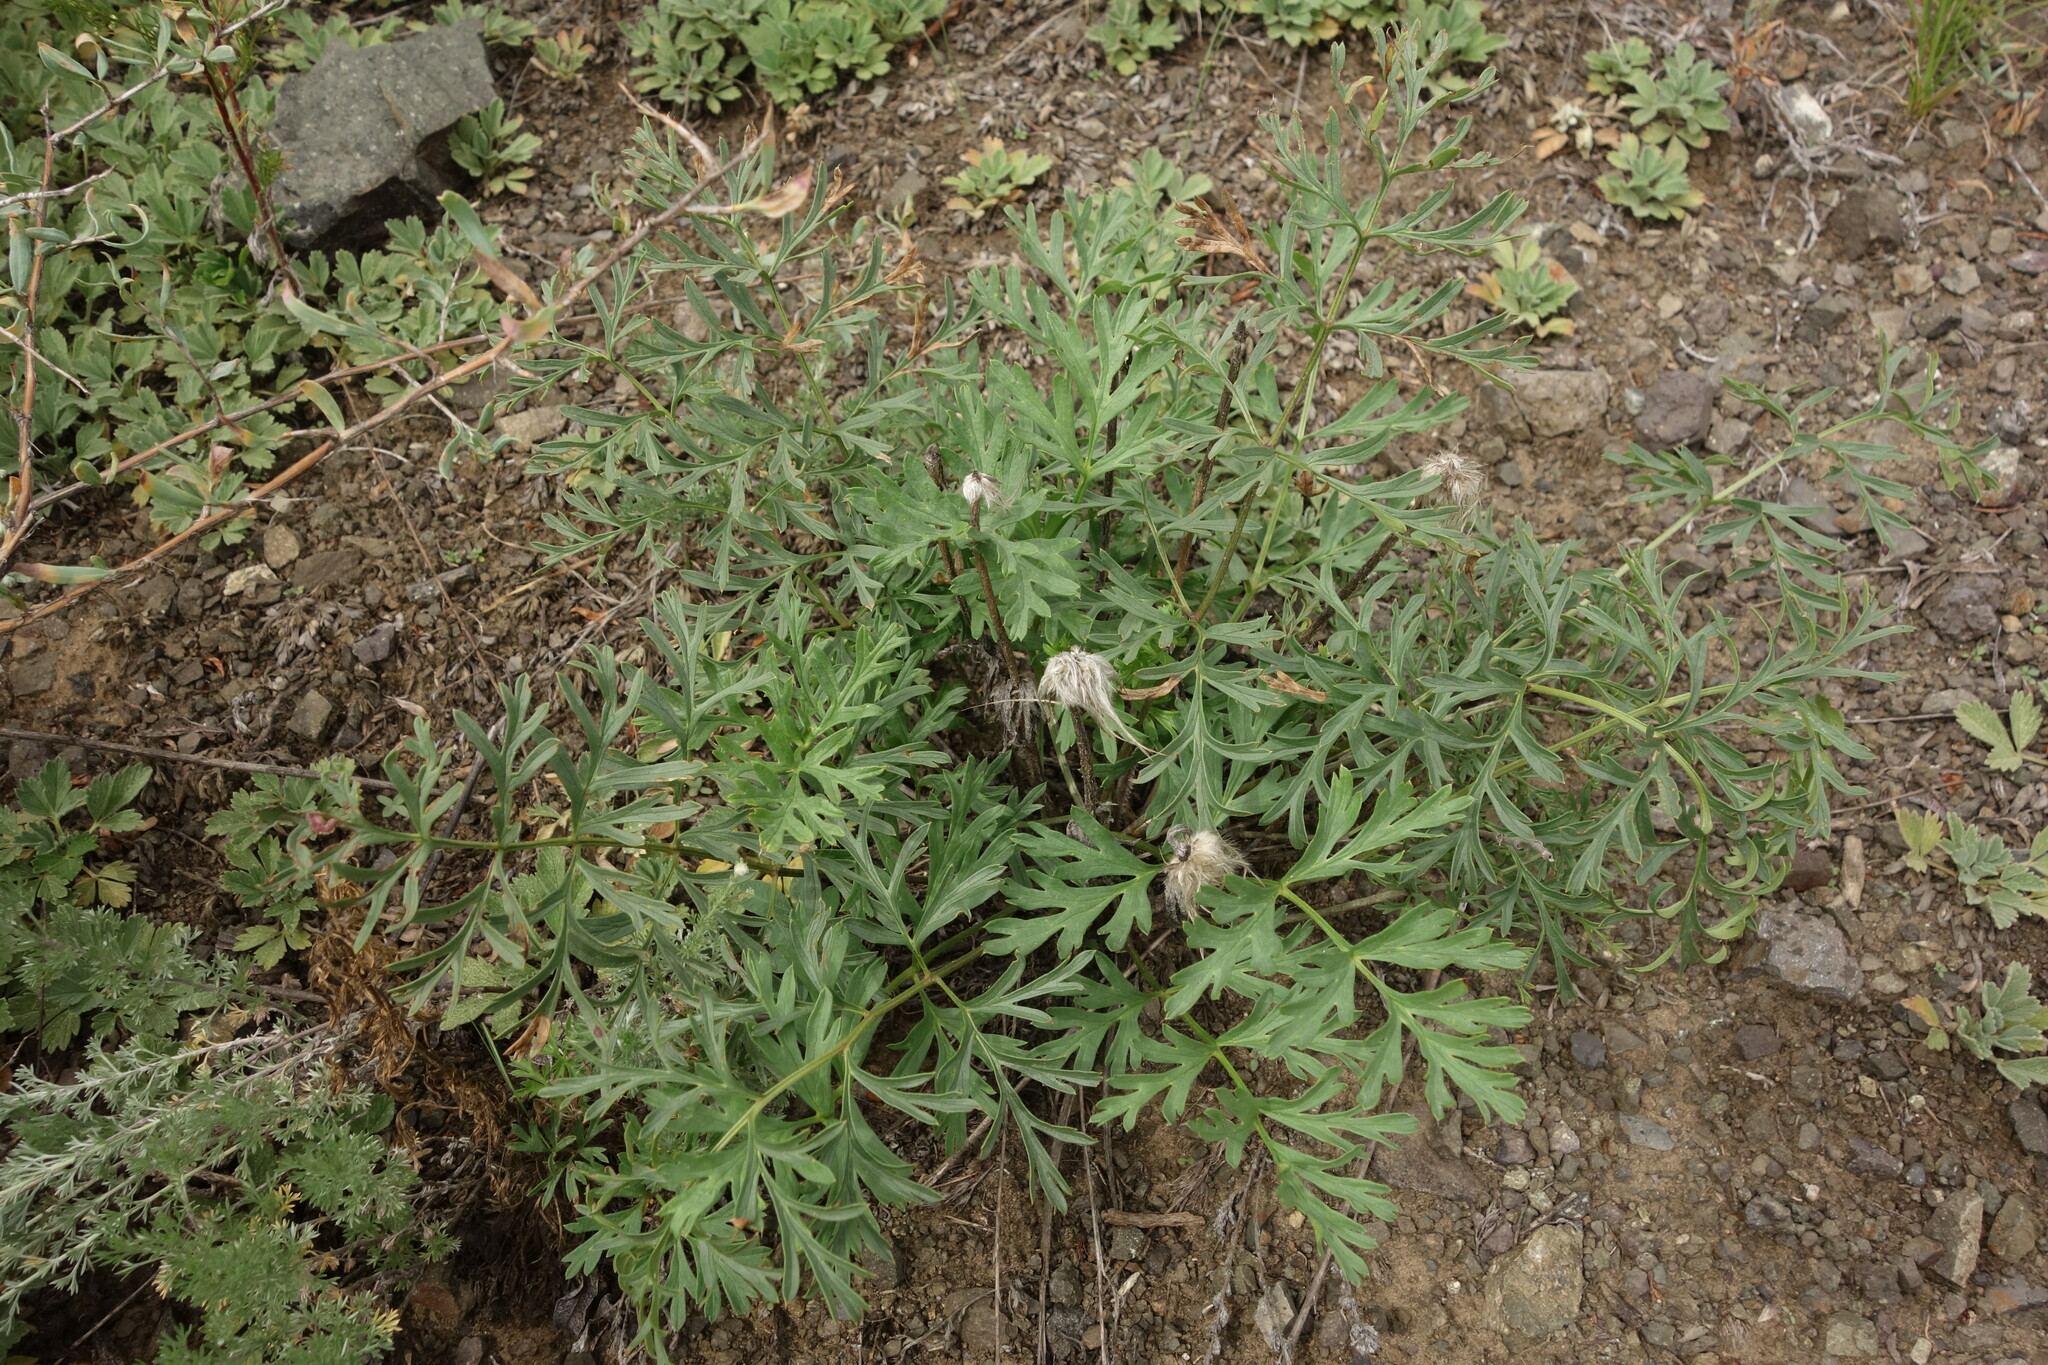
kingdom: Plantae
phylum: Tracheophyta
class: Magnoliopsida
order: Ranunculales
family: Ranunculaceae
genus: Pulsatilla
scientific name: Pulsatilla turczaninovii
